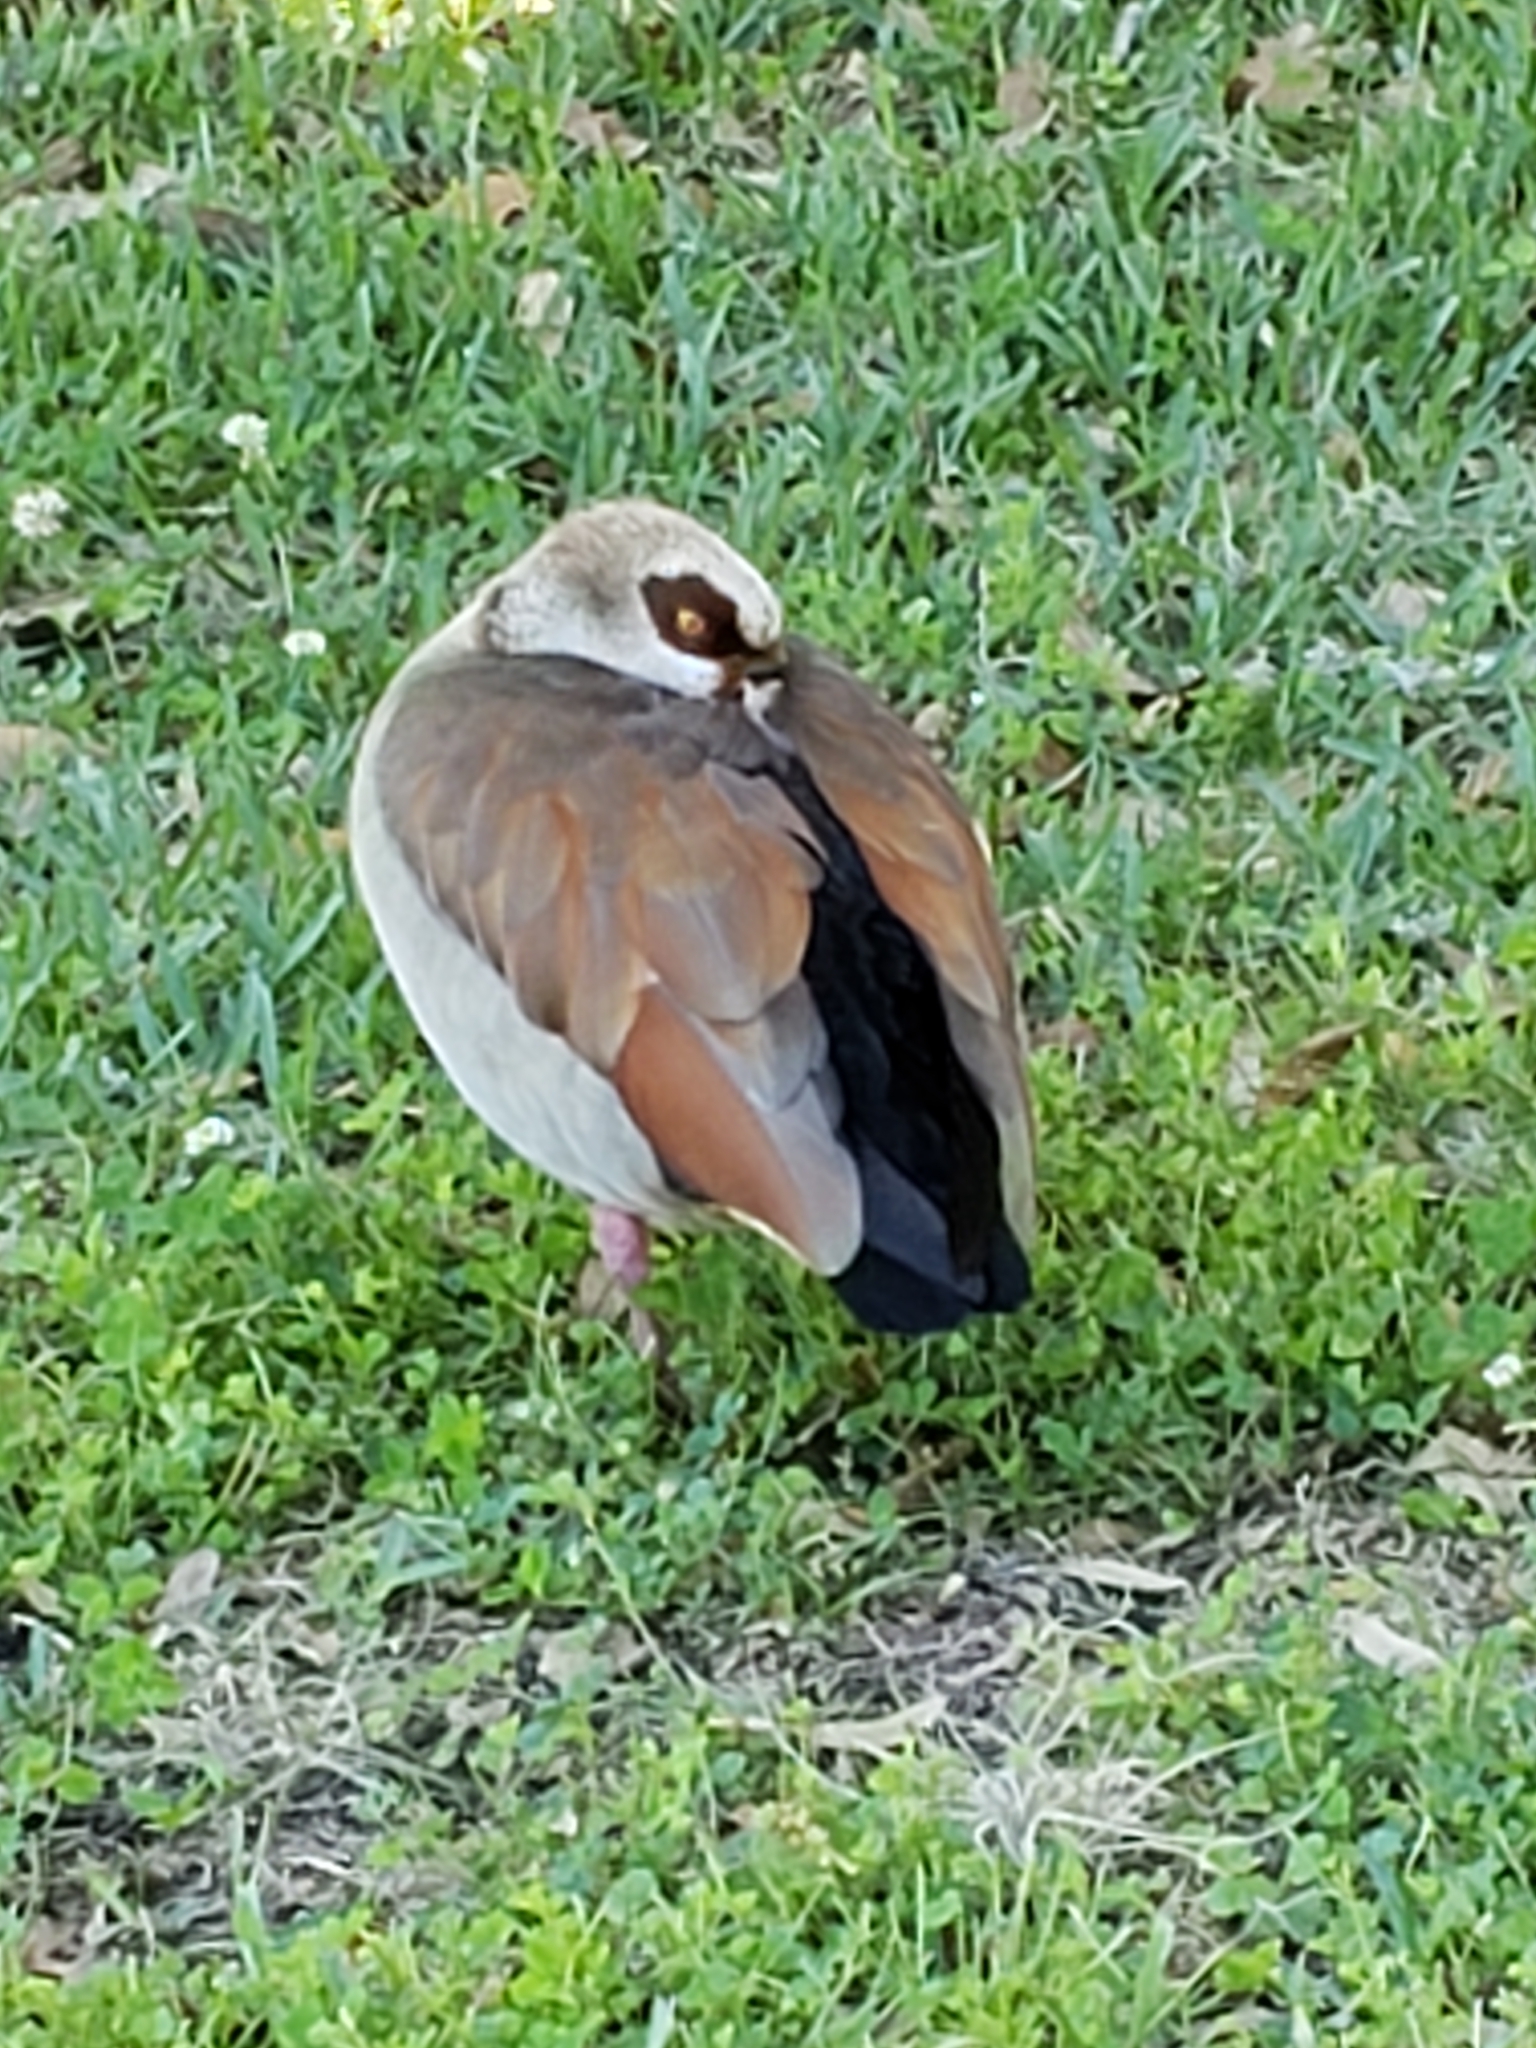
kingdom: Animalia
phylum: Chordata
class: Aves
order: Anseriformes
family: Anatidae
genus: Alopochen
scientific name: Alopochen aegyptiaca
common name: Egyptian goose
